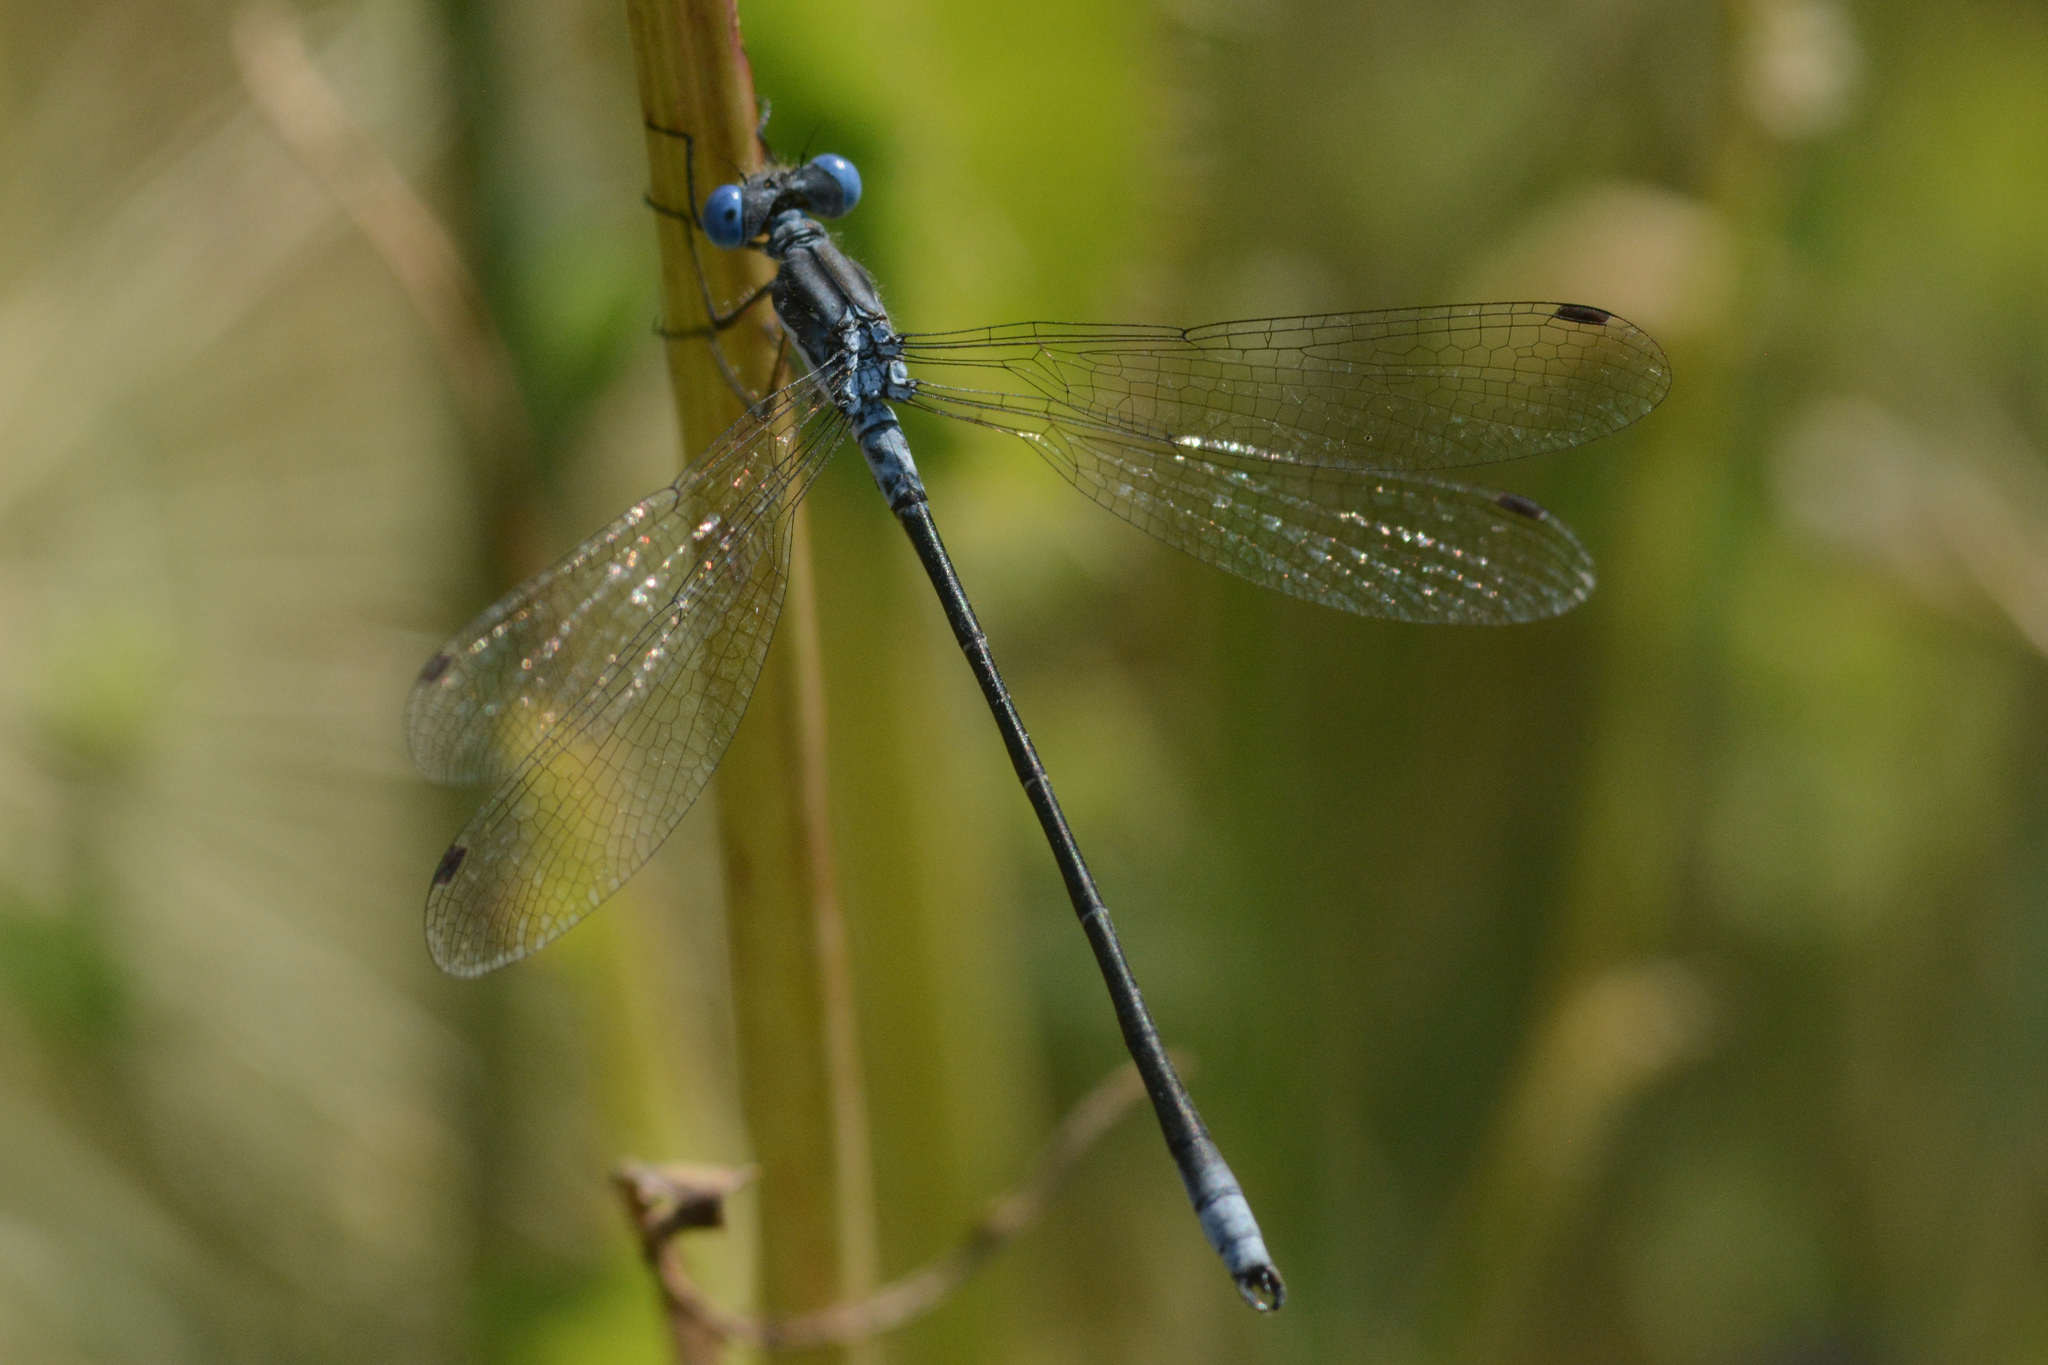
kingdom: Animalia
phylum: Arthropoda
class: Insecta
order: Odonata
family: Lestidae
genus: Lestes
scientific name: Lestes congener
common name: Spotted spreadwing
